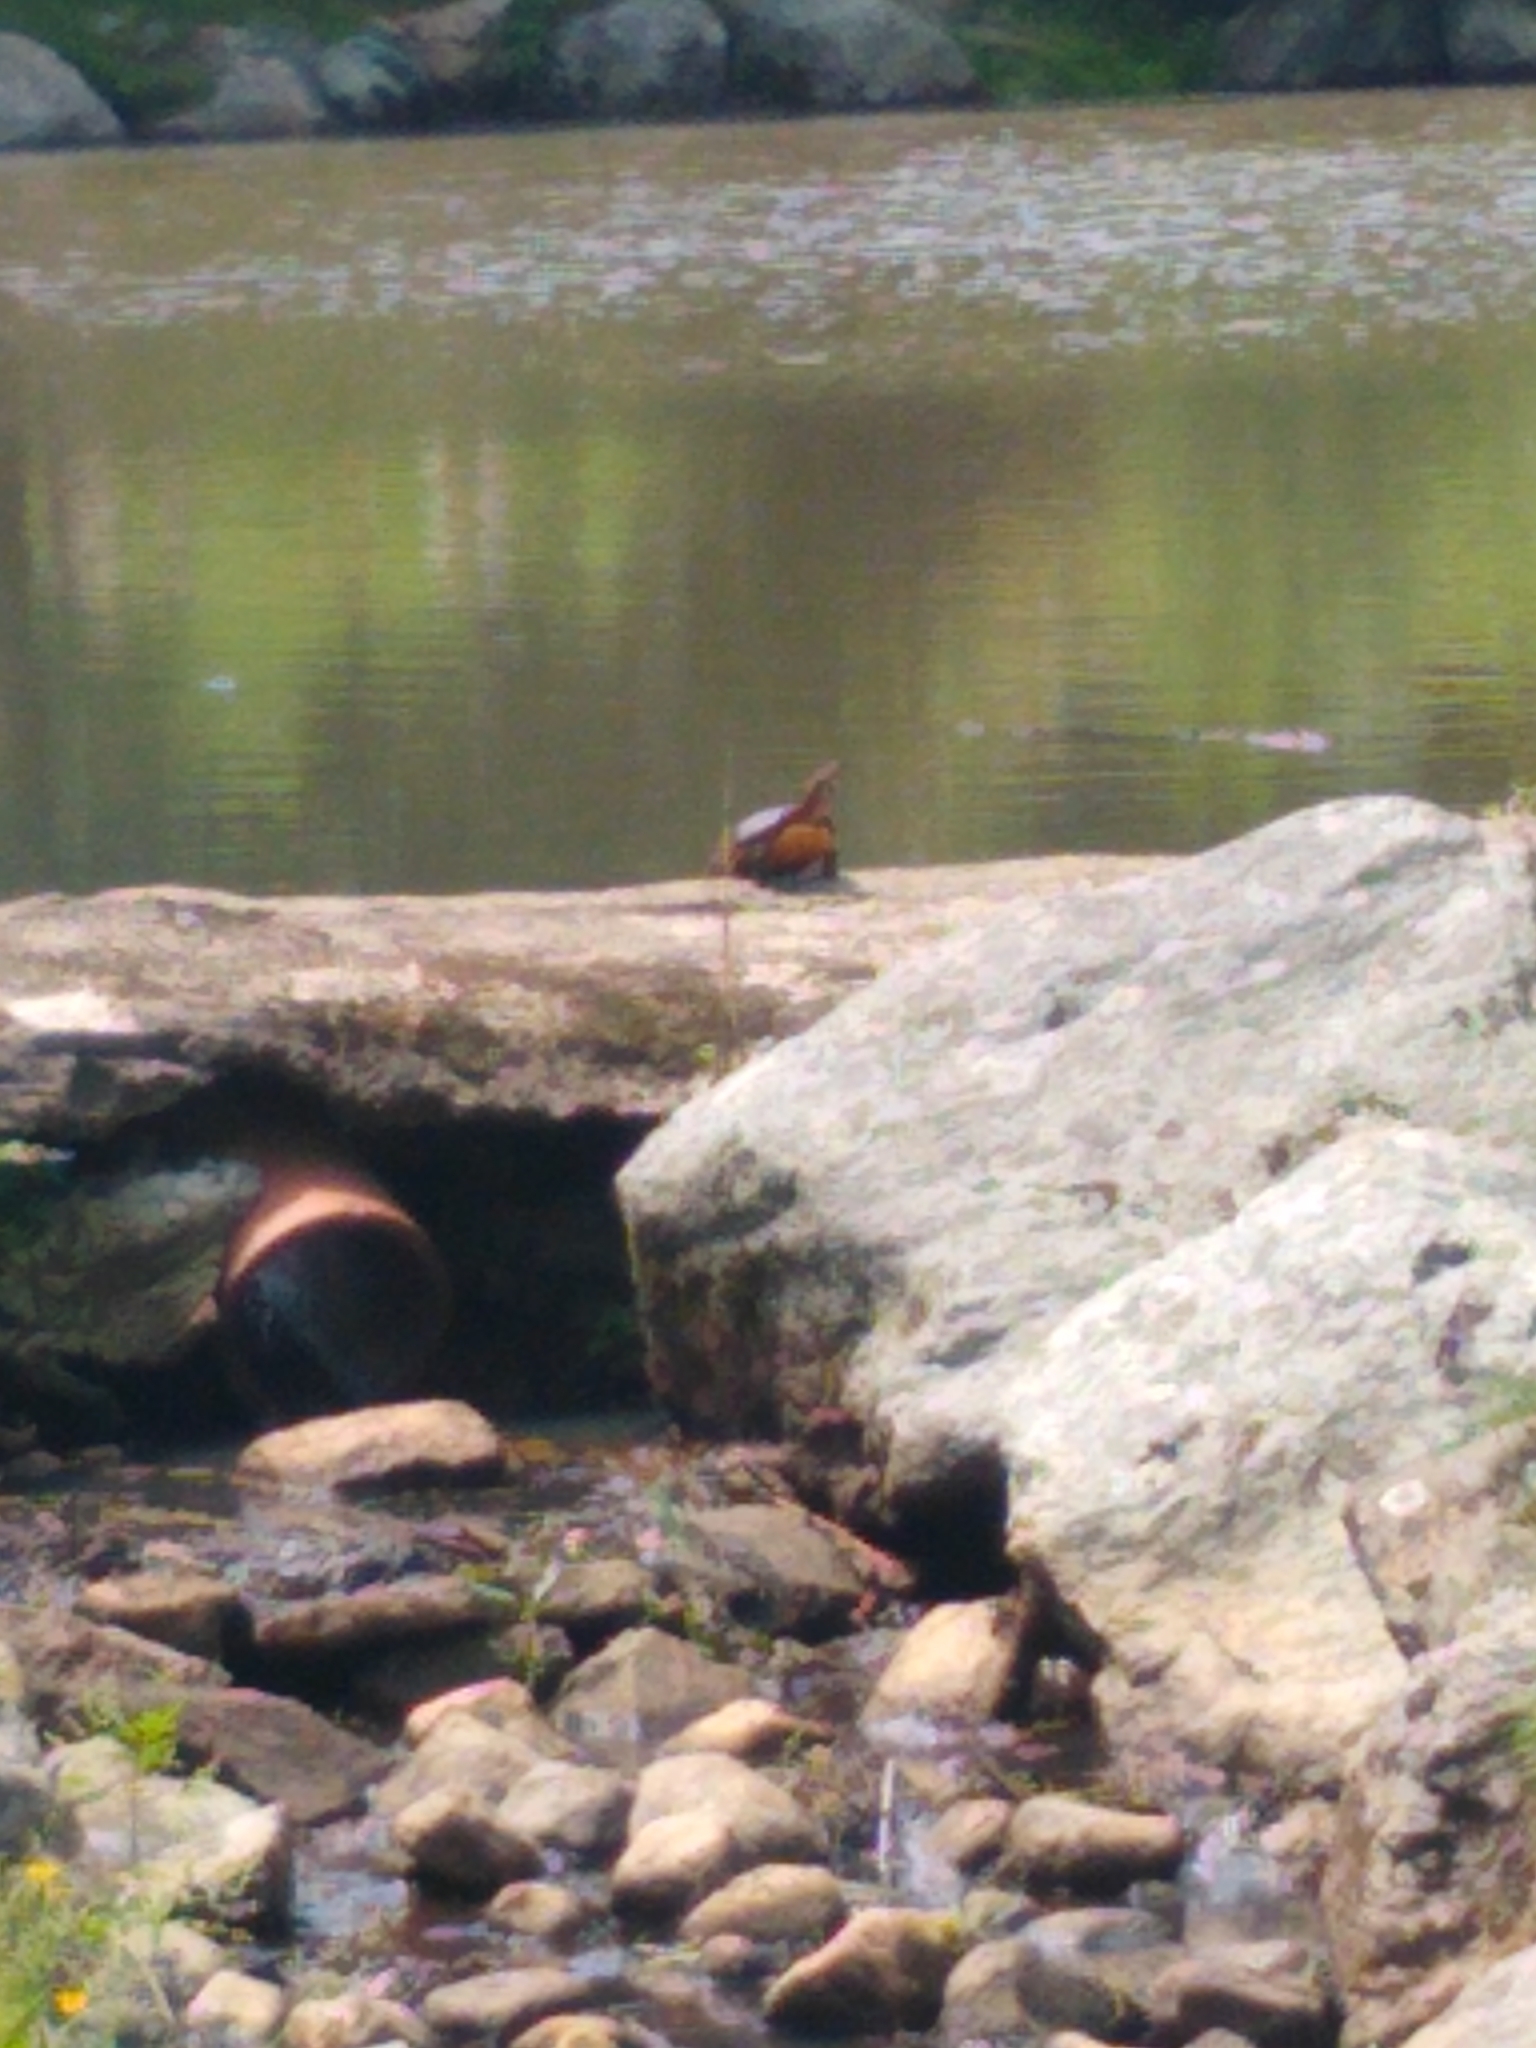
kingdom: Animalia
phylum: Chordata
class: Testudines
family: Emydidae
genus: Chrysemys
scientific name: Chrysemys picta
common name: Painted turtle
